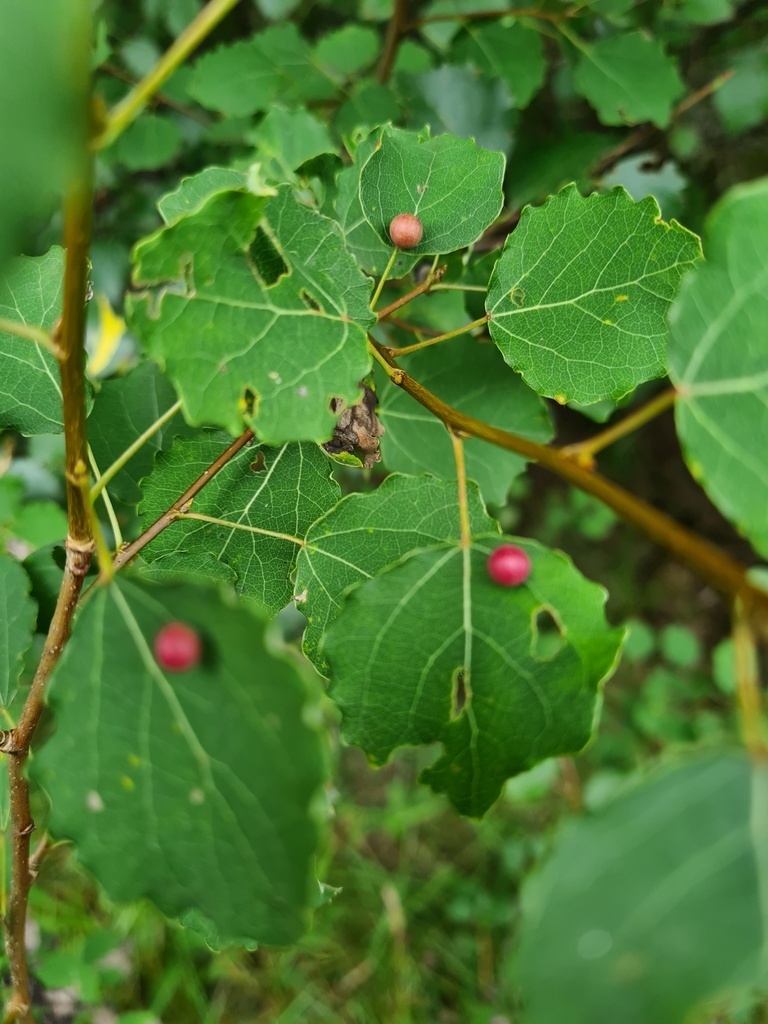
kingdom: Animalia
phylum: Arthropoda
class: Insecta
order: Diptera
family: Cecidomyiidae
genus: Harmandiola
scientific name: Harmandiola tremulae
